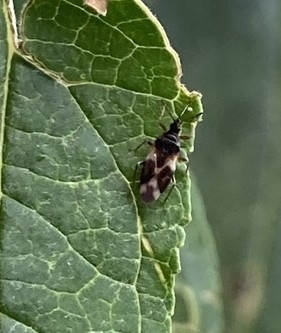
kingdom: Animalia
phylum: Arthropoda
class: Insecta
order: Hemiptera
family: Anthocoridae
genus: Anthocoris
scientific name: Anthocoris nemorum
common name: Minute pirate bug
